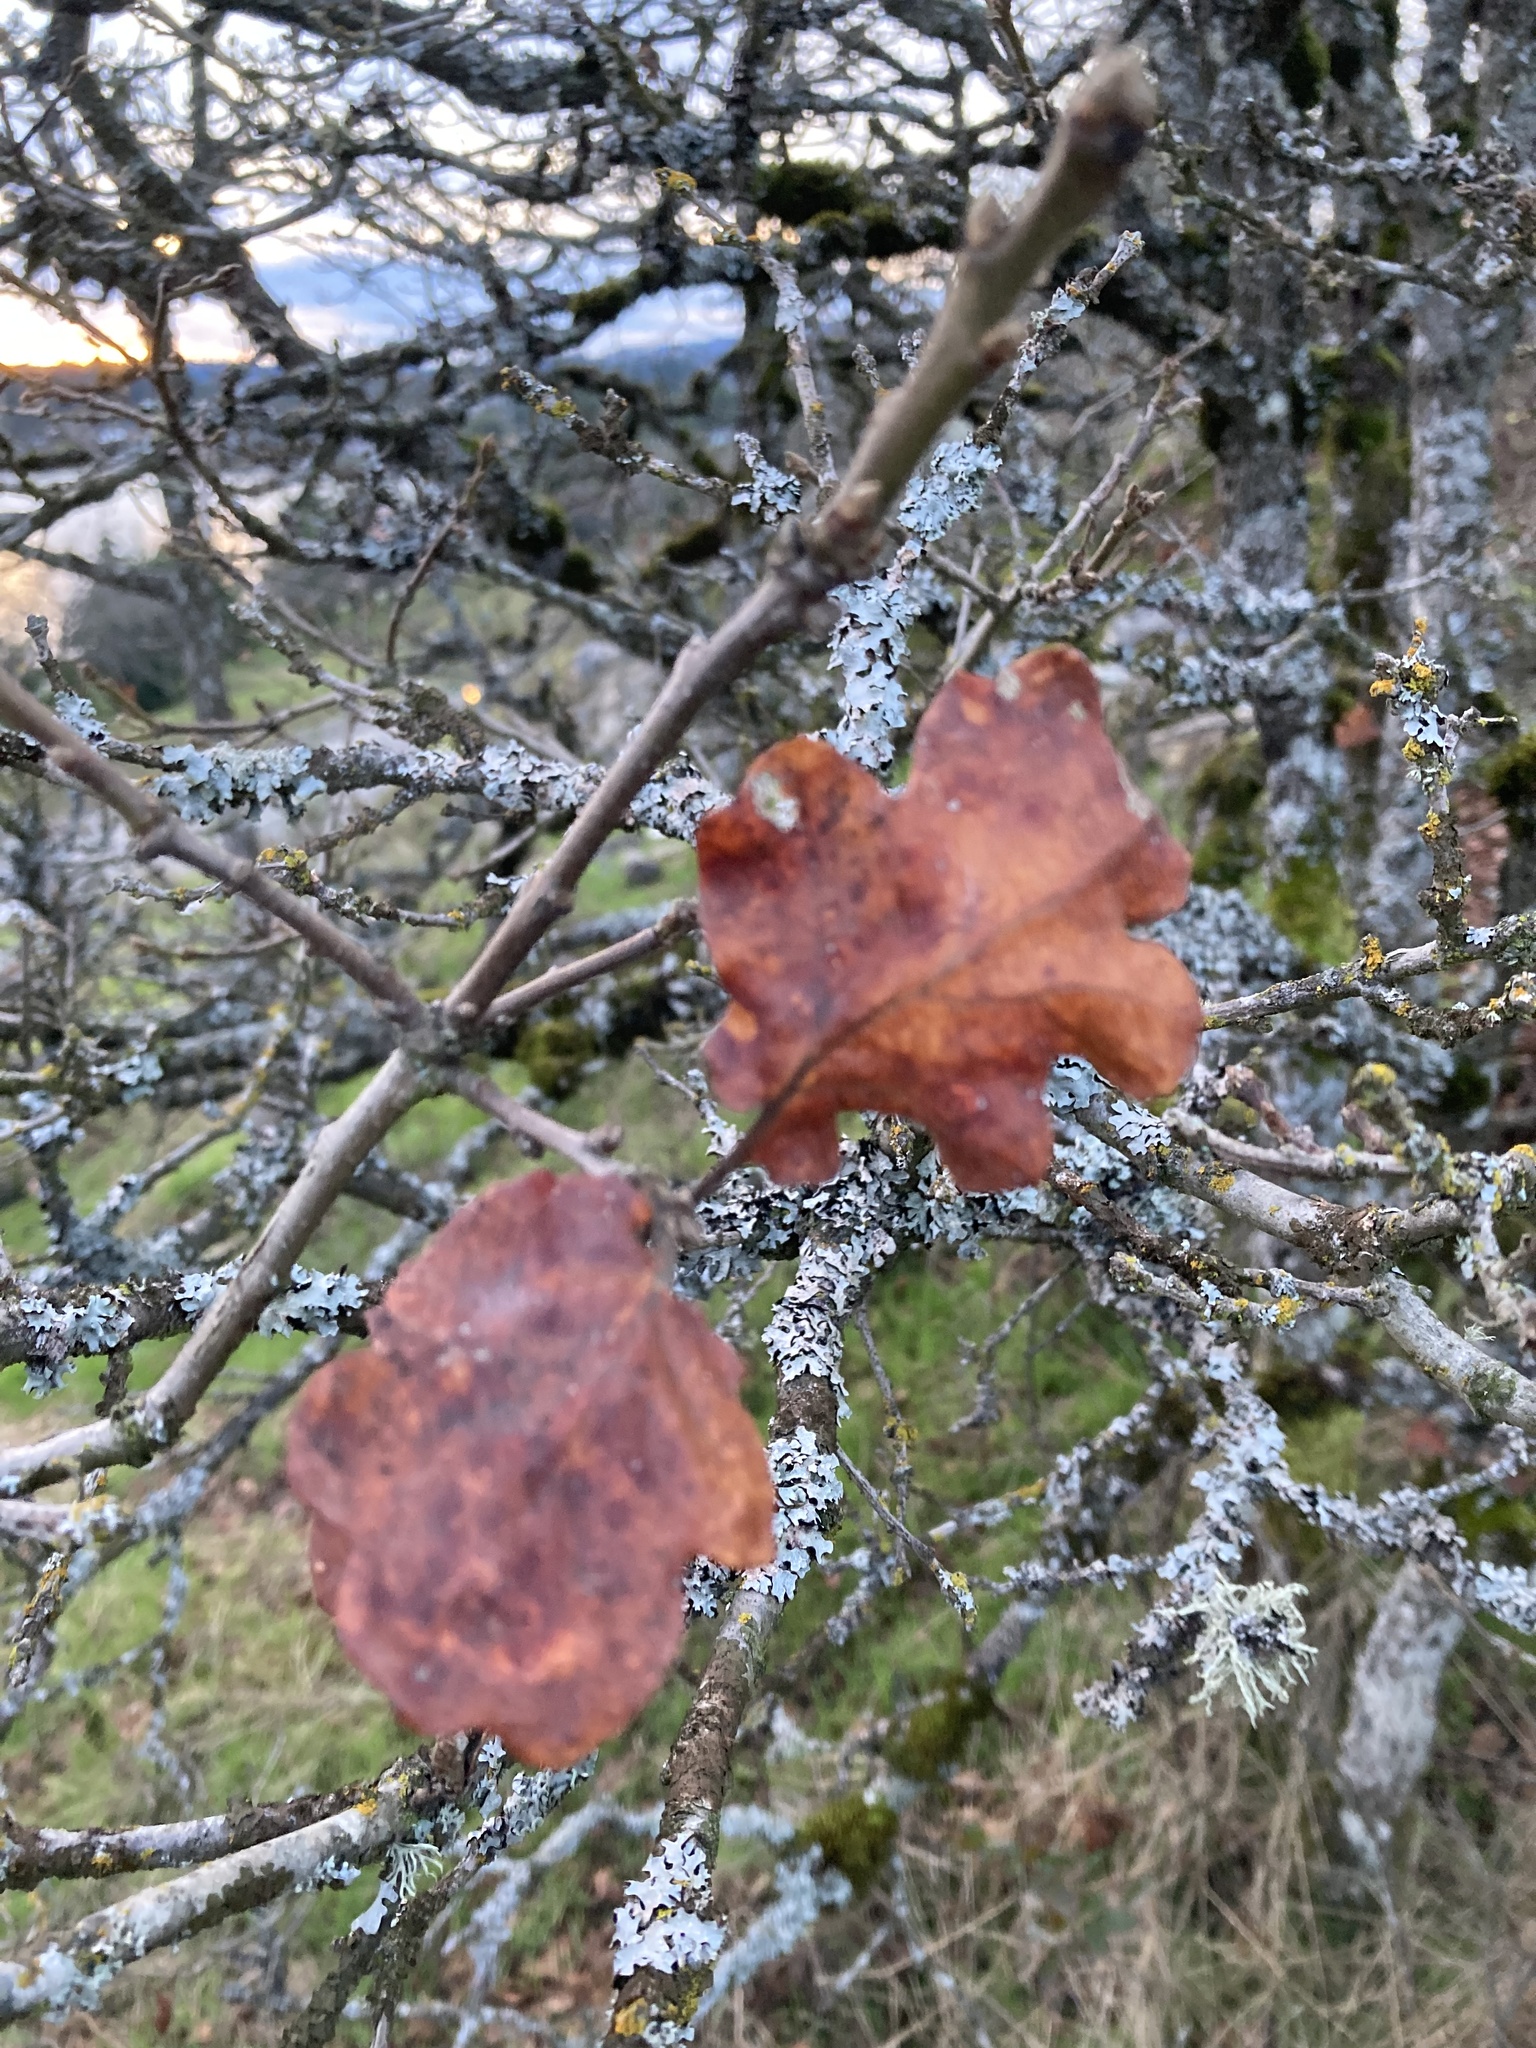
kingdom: Plantae
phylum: Tracheophyta
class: Magnoliopsida
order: Fagales
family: Fagaceae
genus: Quercus
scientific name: Quercus garryana
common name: Garry oak
